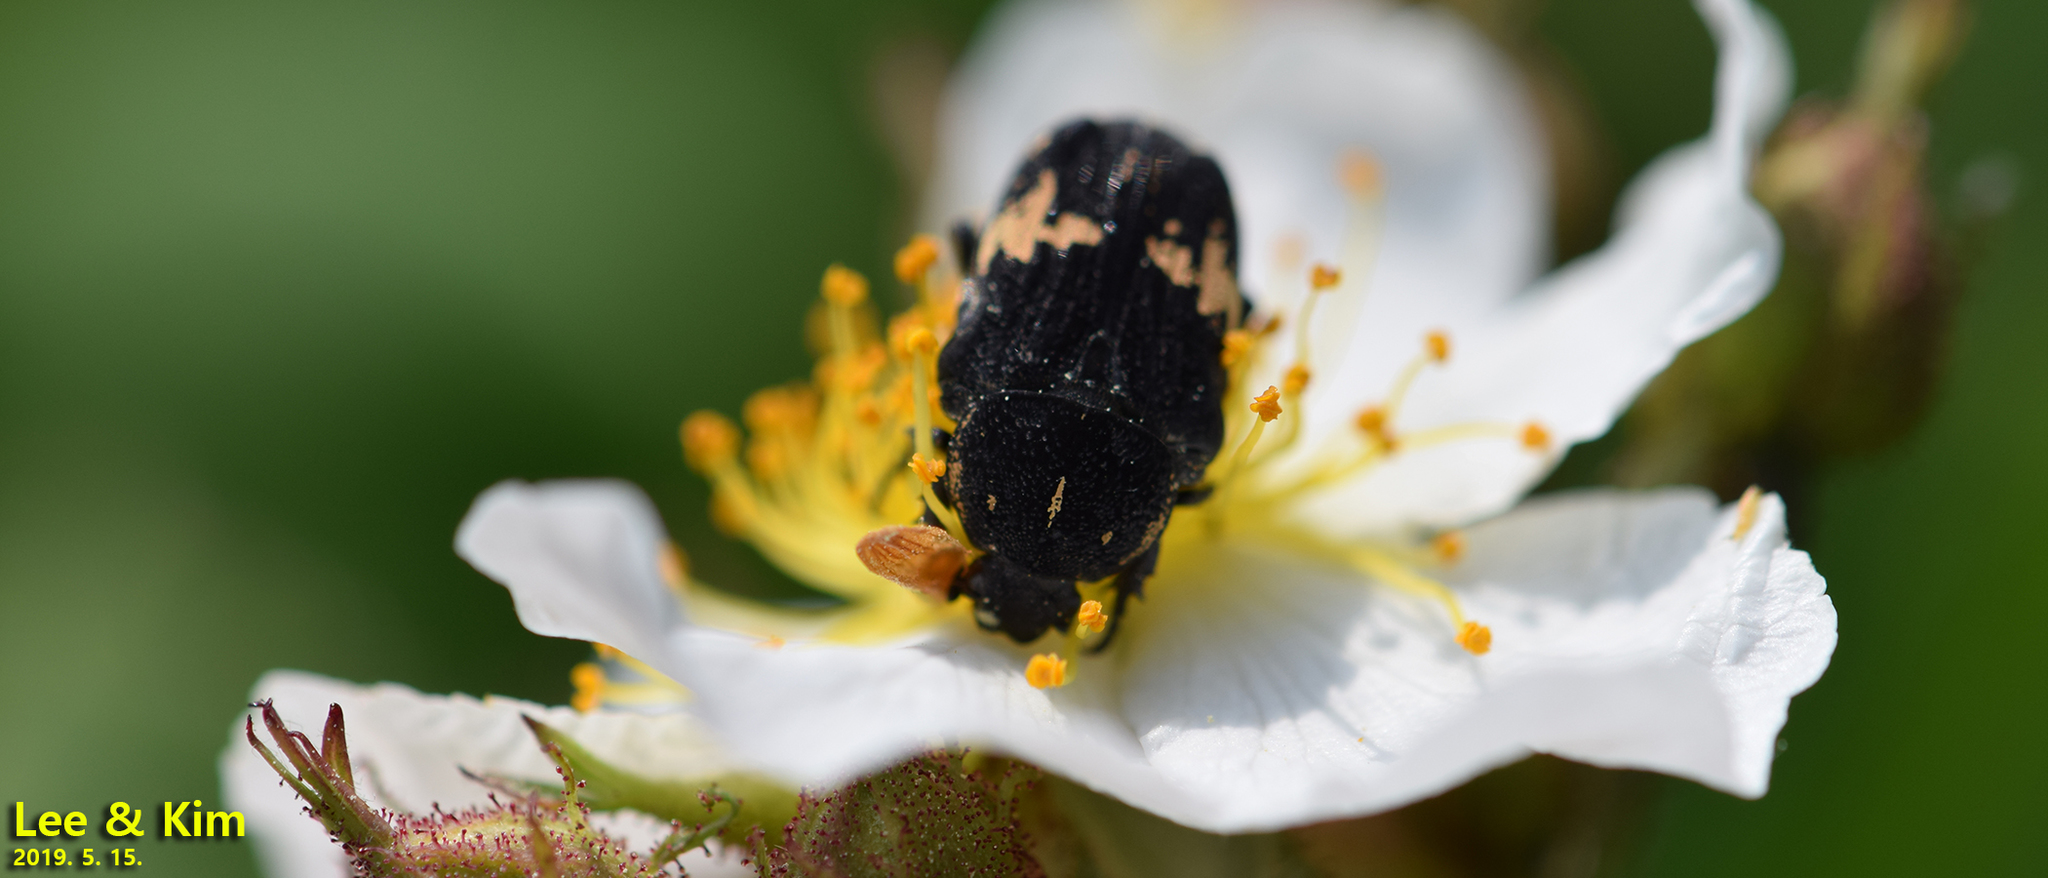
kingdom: Animalia
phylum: Arthropoda
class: Insecta
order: Coleoptera
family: Scarabaeidae
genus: Glycyphana
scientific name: Glycyphana fulvistemma
